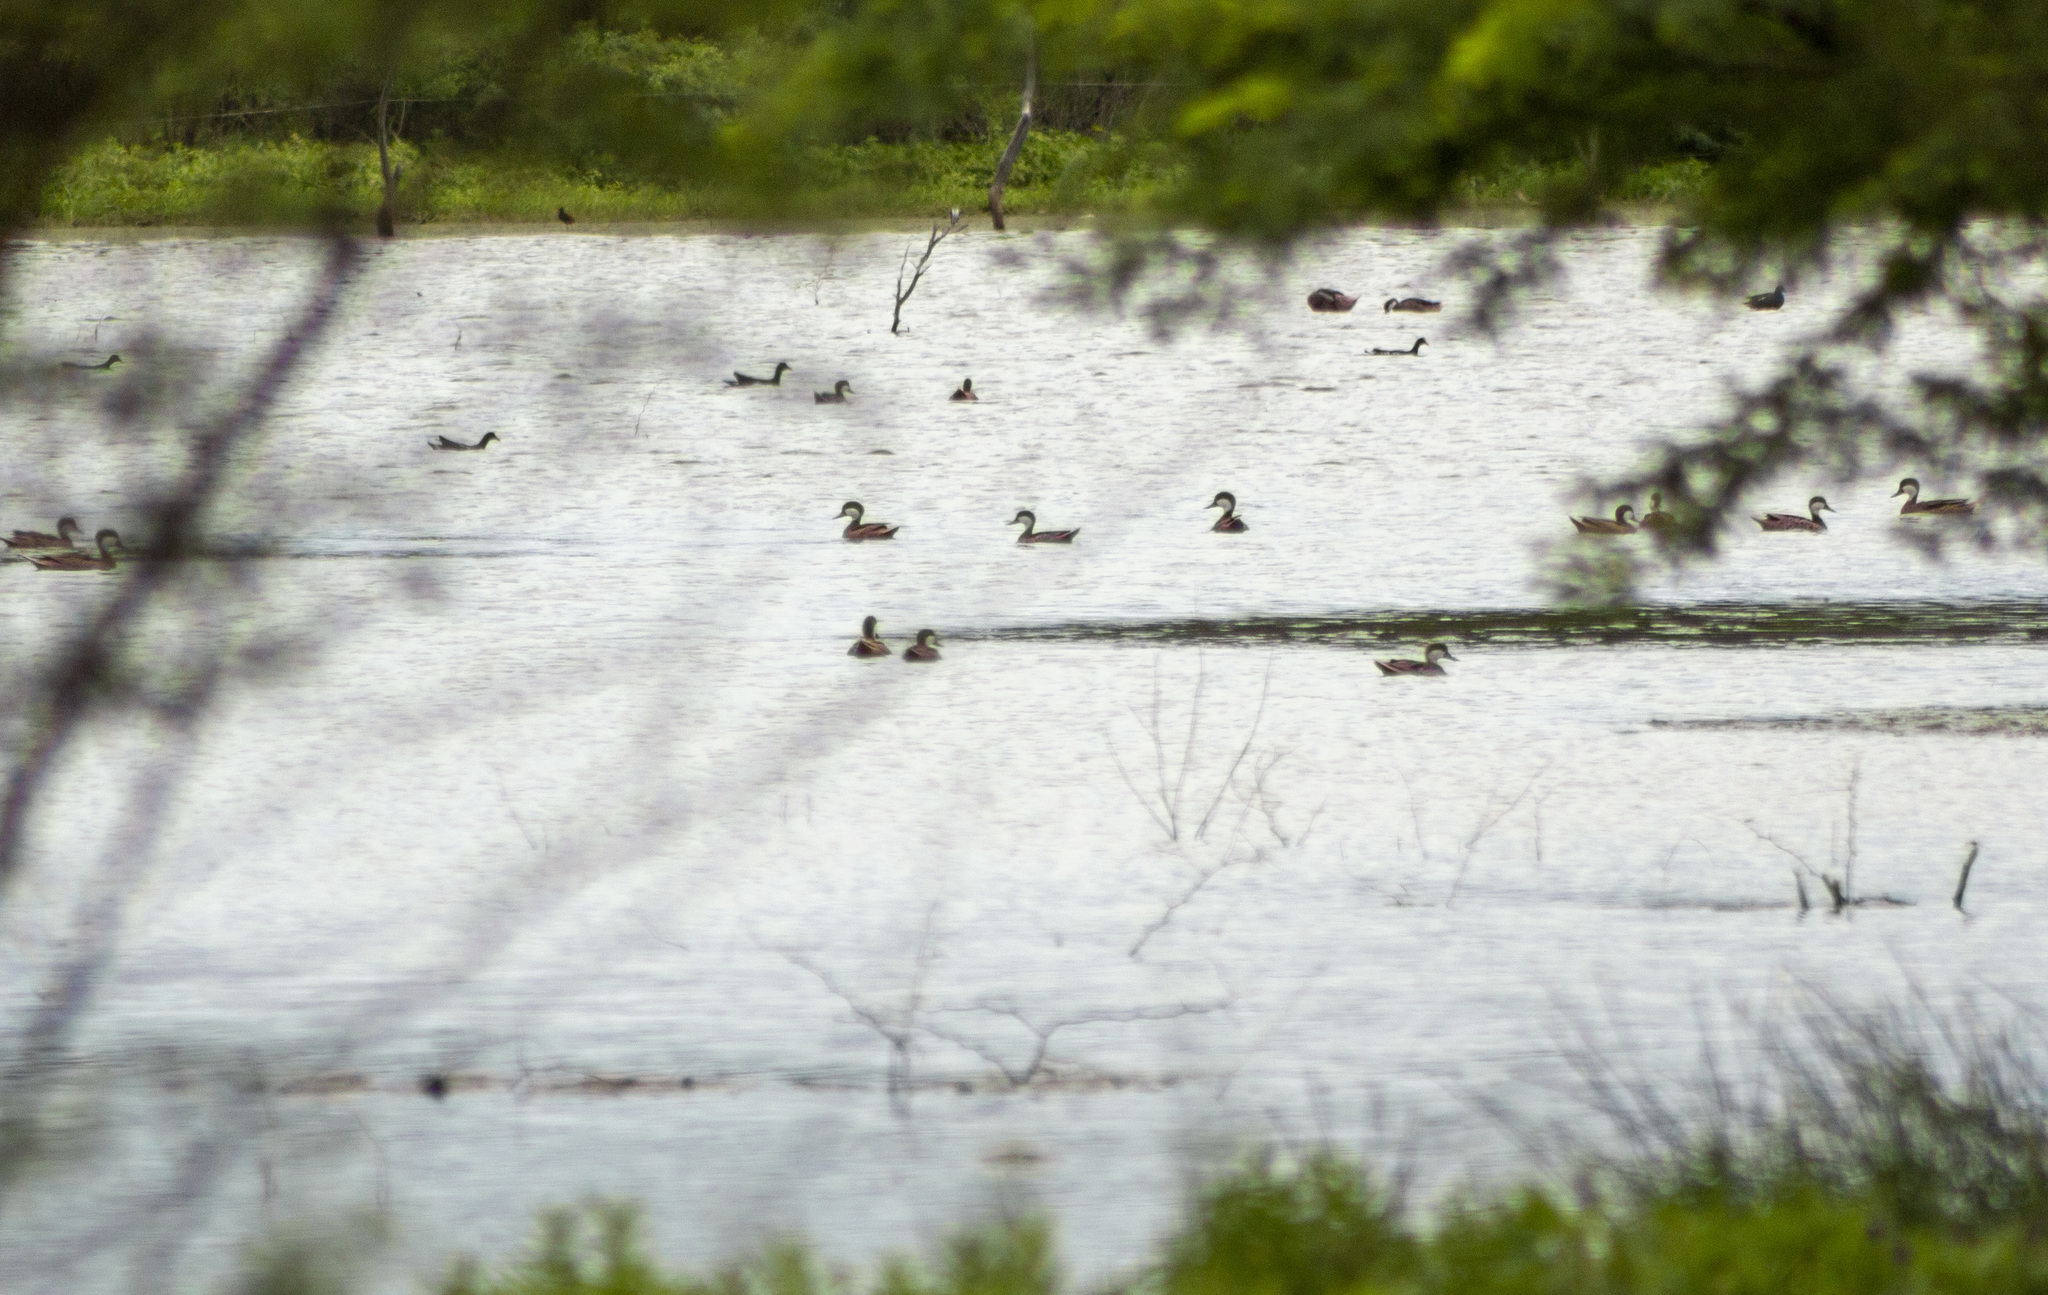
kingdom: Animalia
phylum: Chordata
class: Aves
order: Anseriformes
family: Anatidae
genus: Anas
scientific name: Anas bahamensis
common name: White-cheeked pintail
